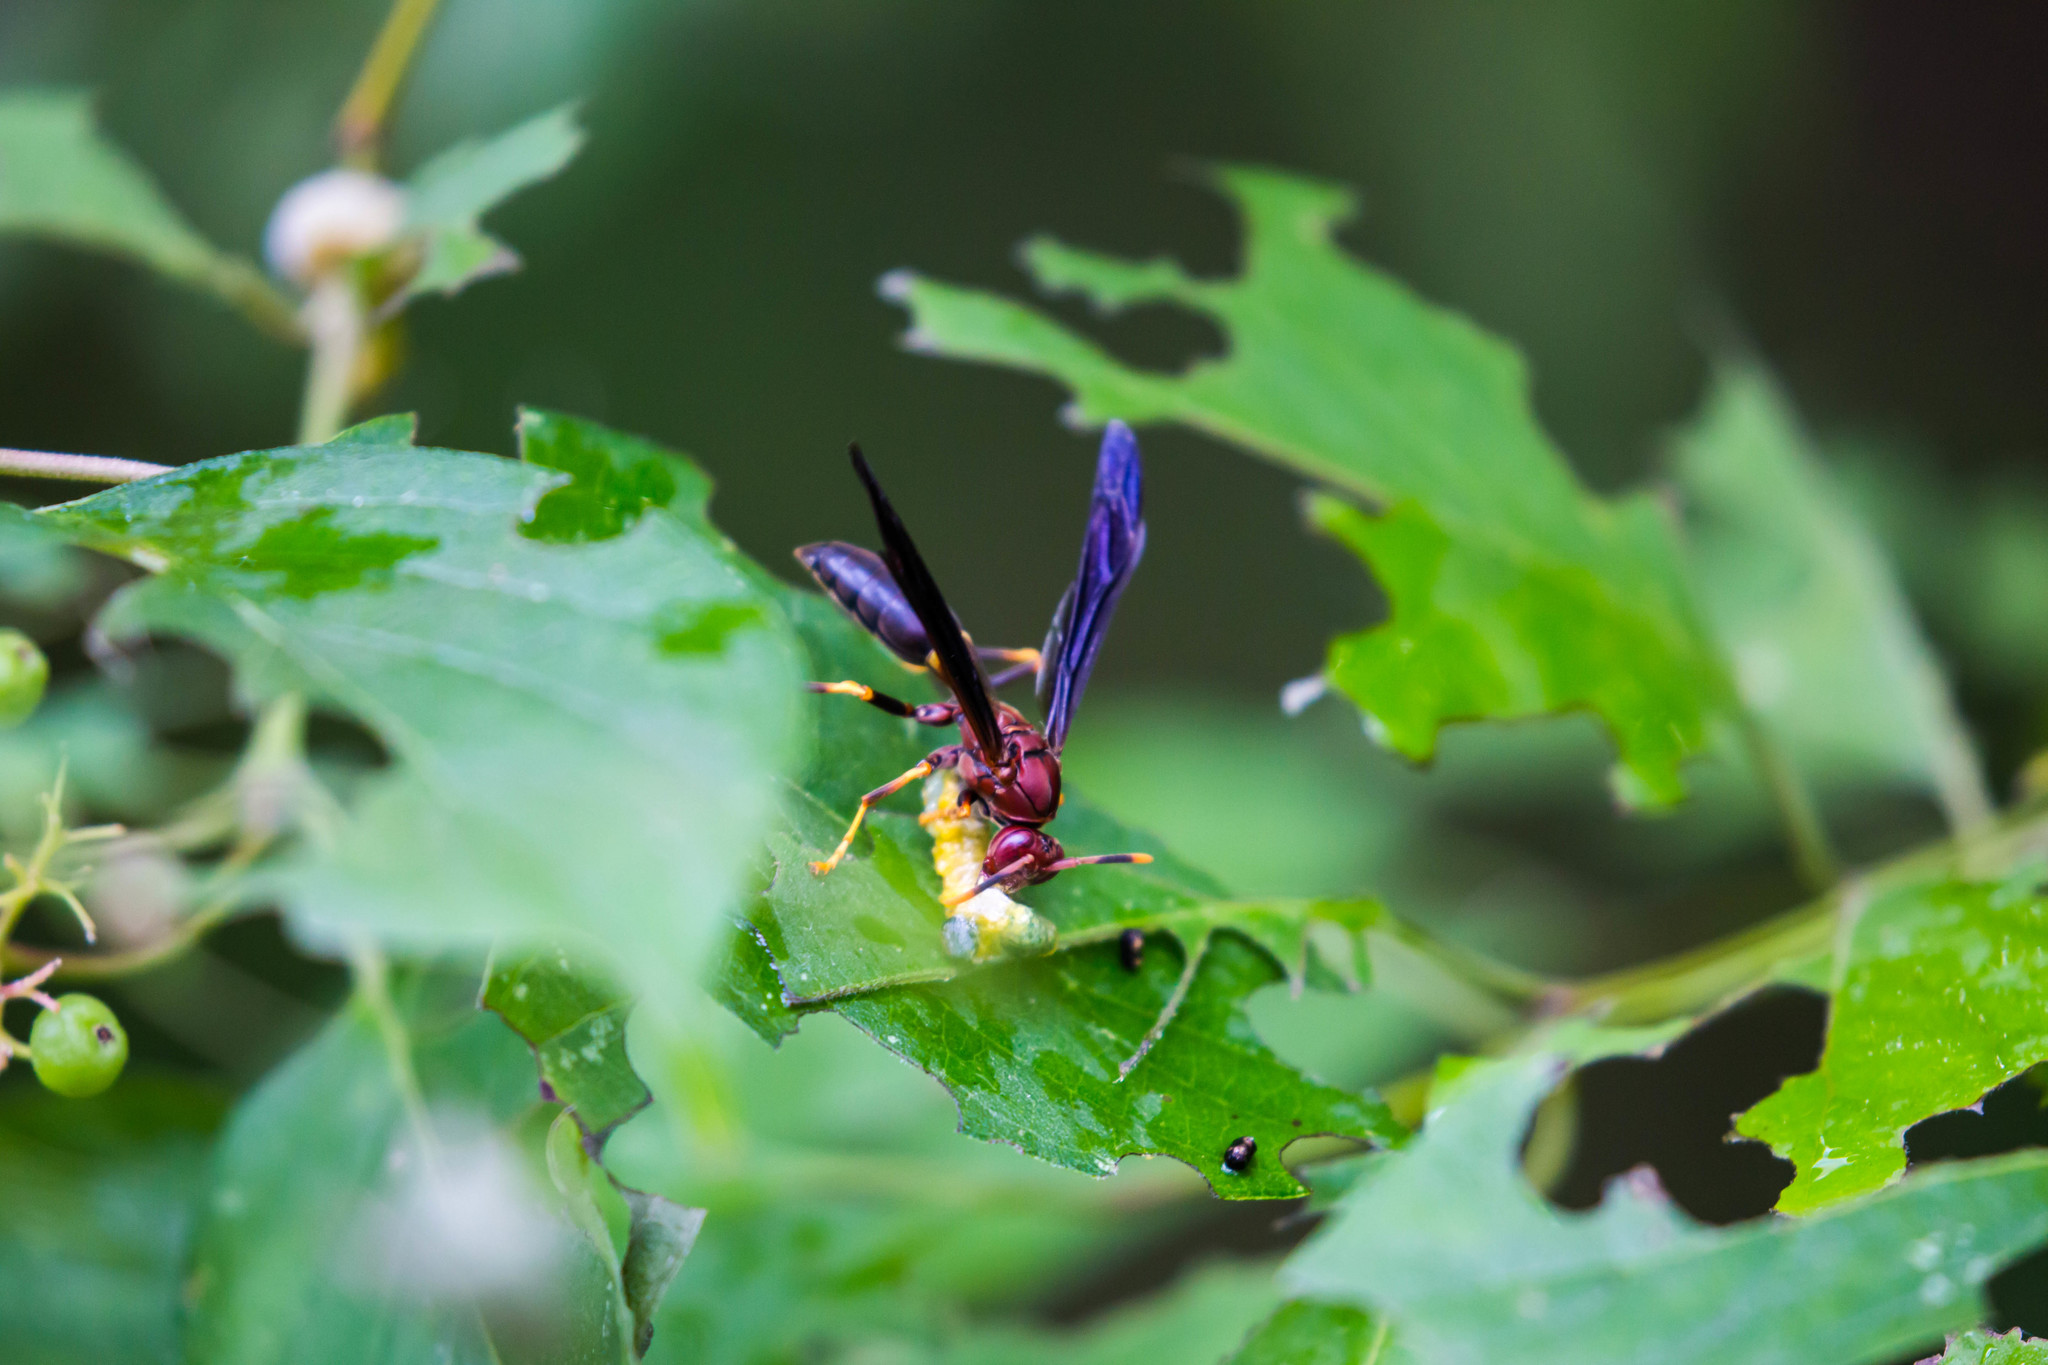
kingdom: Animalia
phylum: Arthropoda
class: Insecta
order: Hymenoptera
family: Eumenidae
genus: Polistes
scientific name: Polistes annularis
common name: Ringed paper wasp
